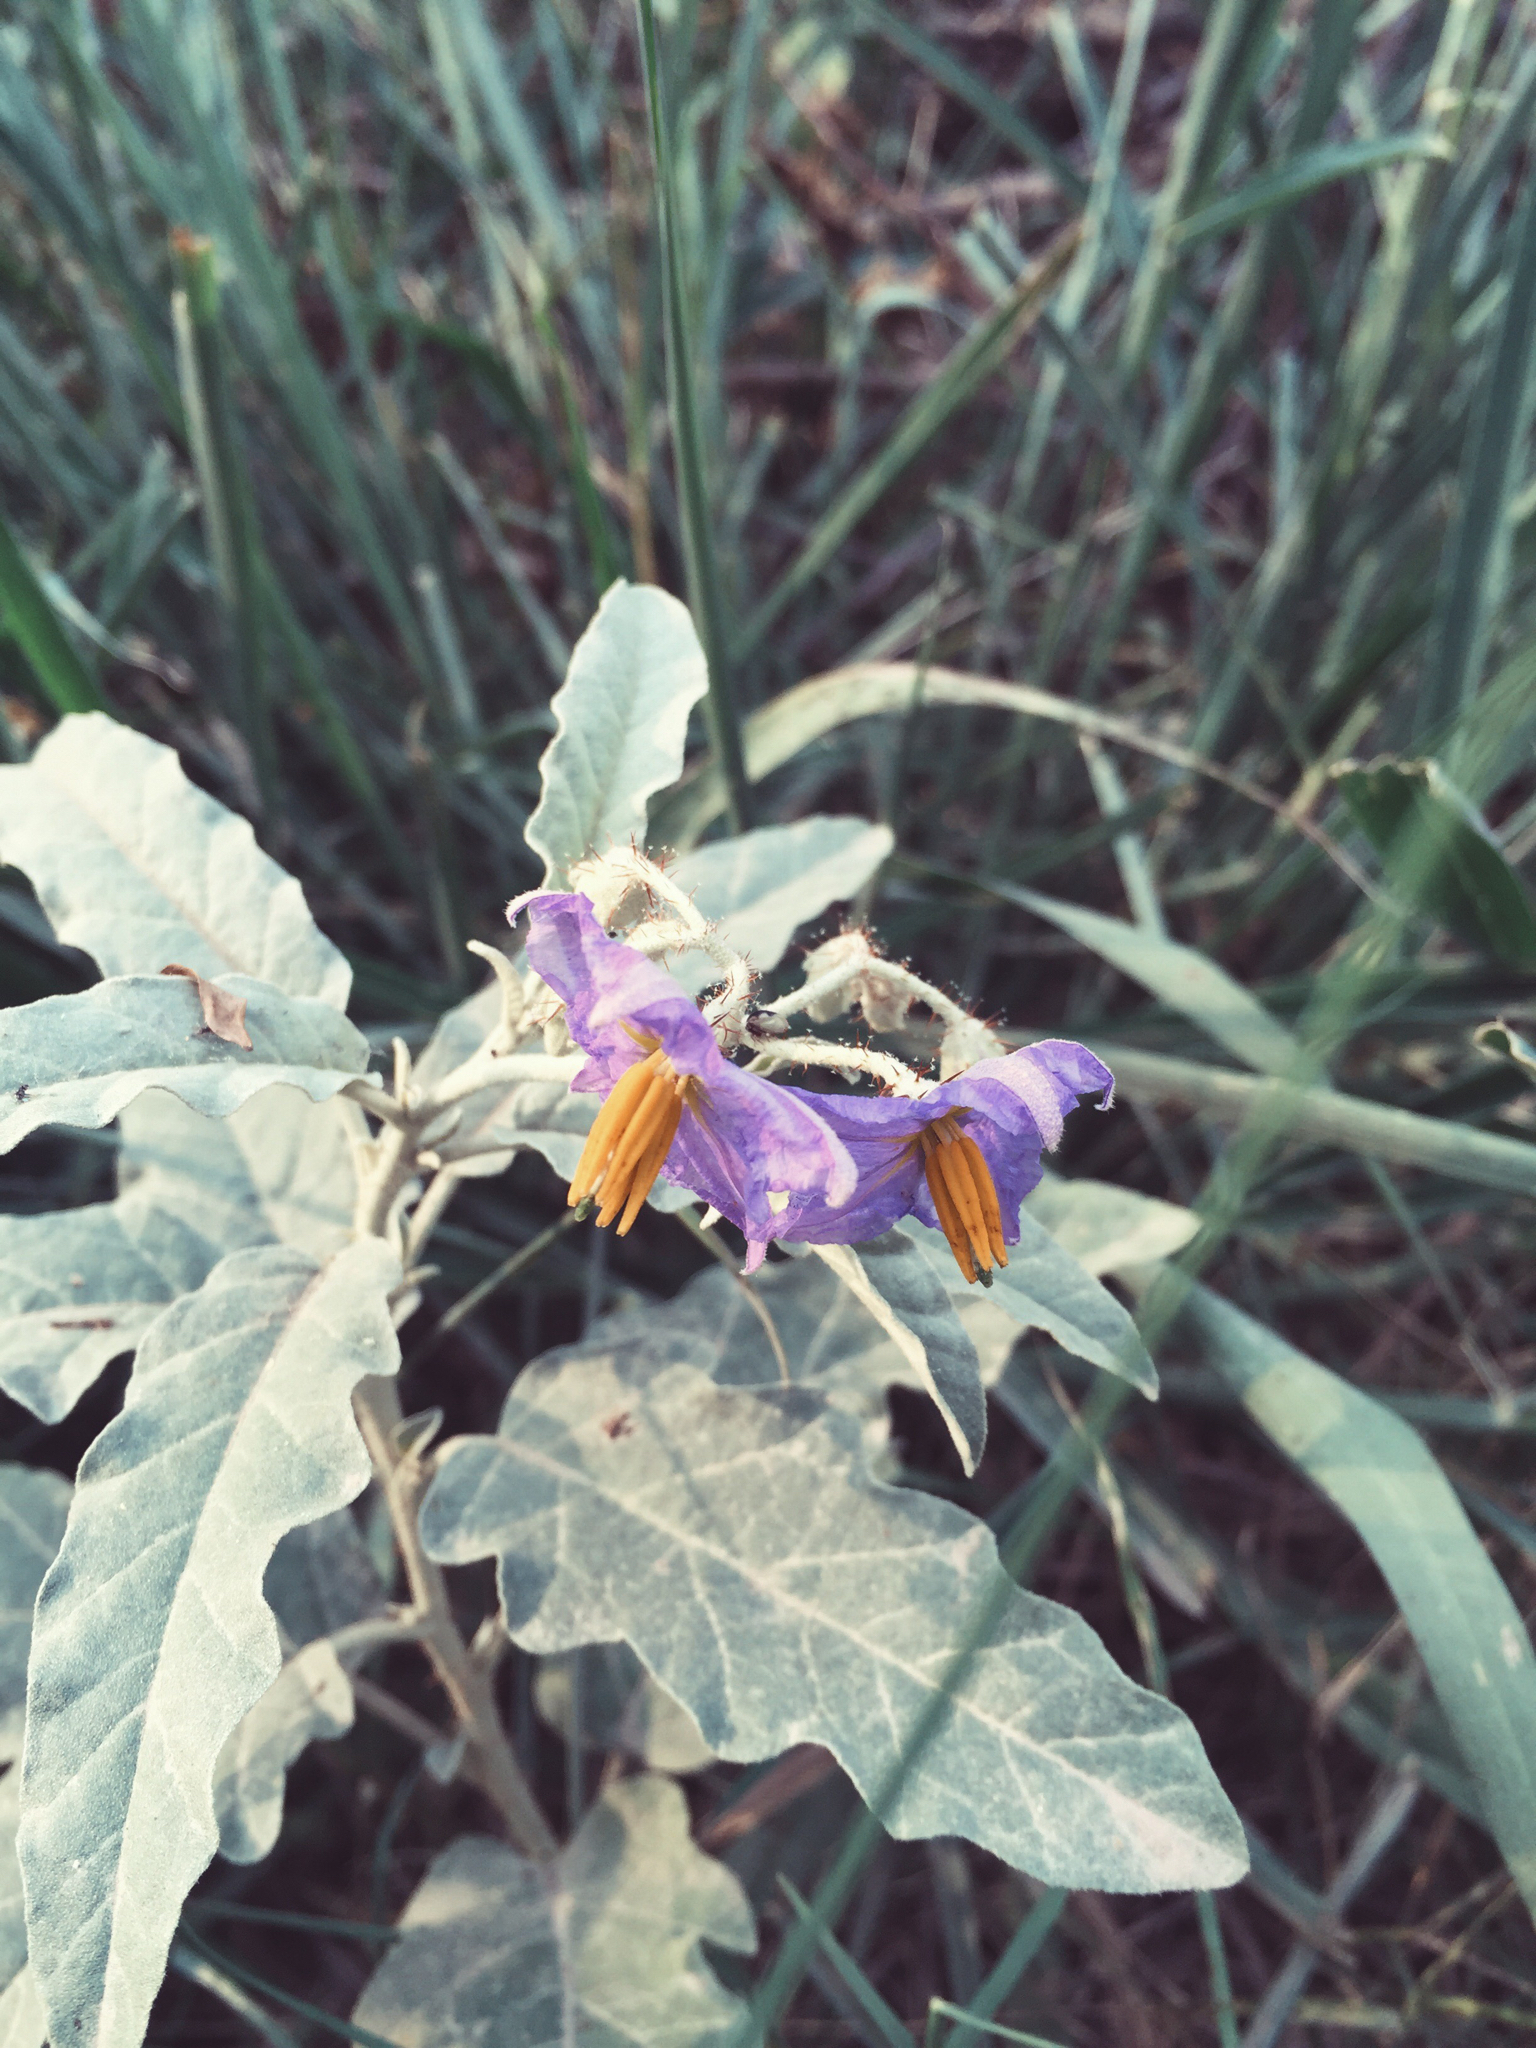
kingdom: Plantae
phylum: Tracheophyta
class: Magnoliopsida
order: Solanales
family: Solanaceae
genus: Solanum
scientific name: Solanum elaeagnifolium
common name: Silverleaf nightshade
